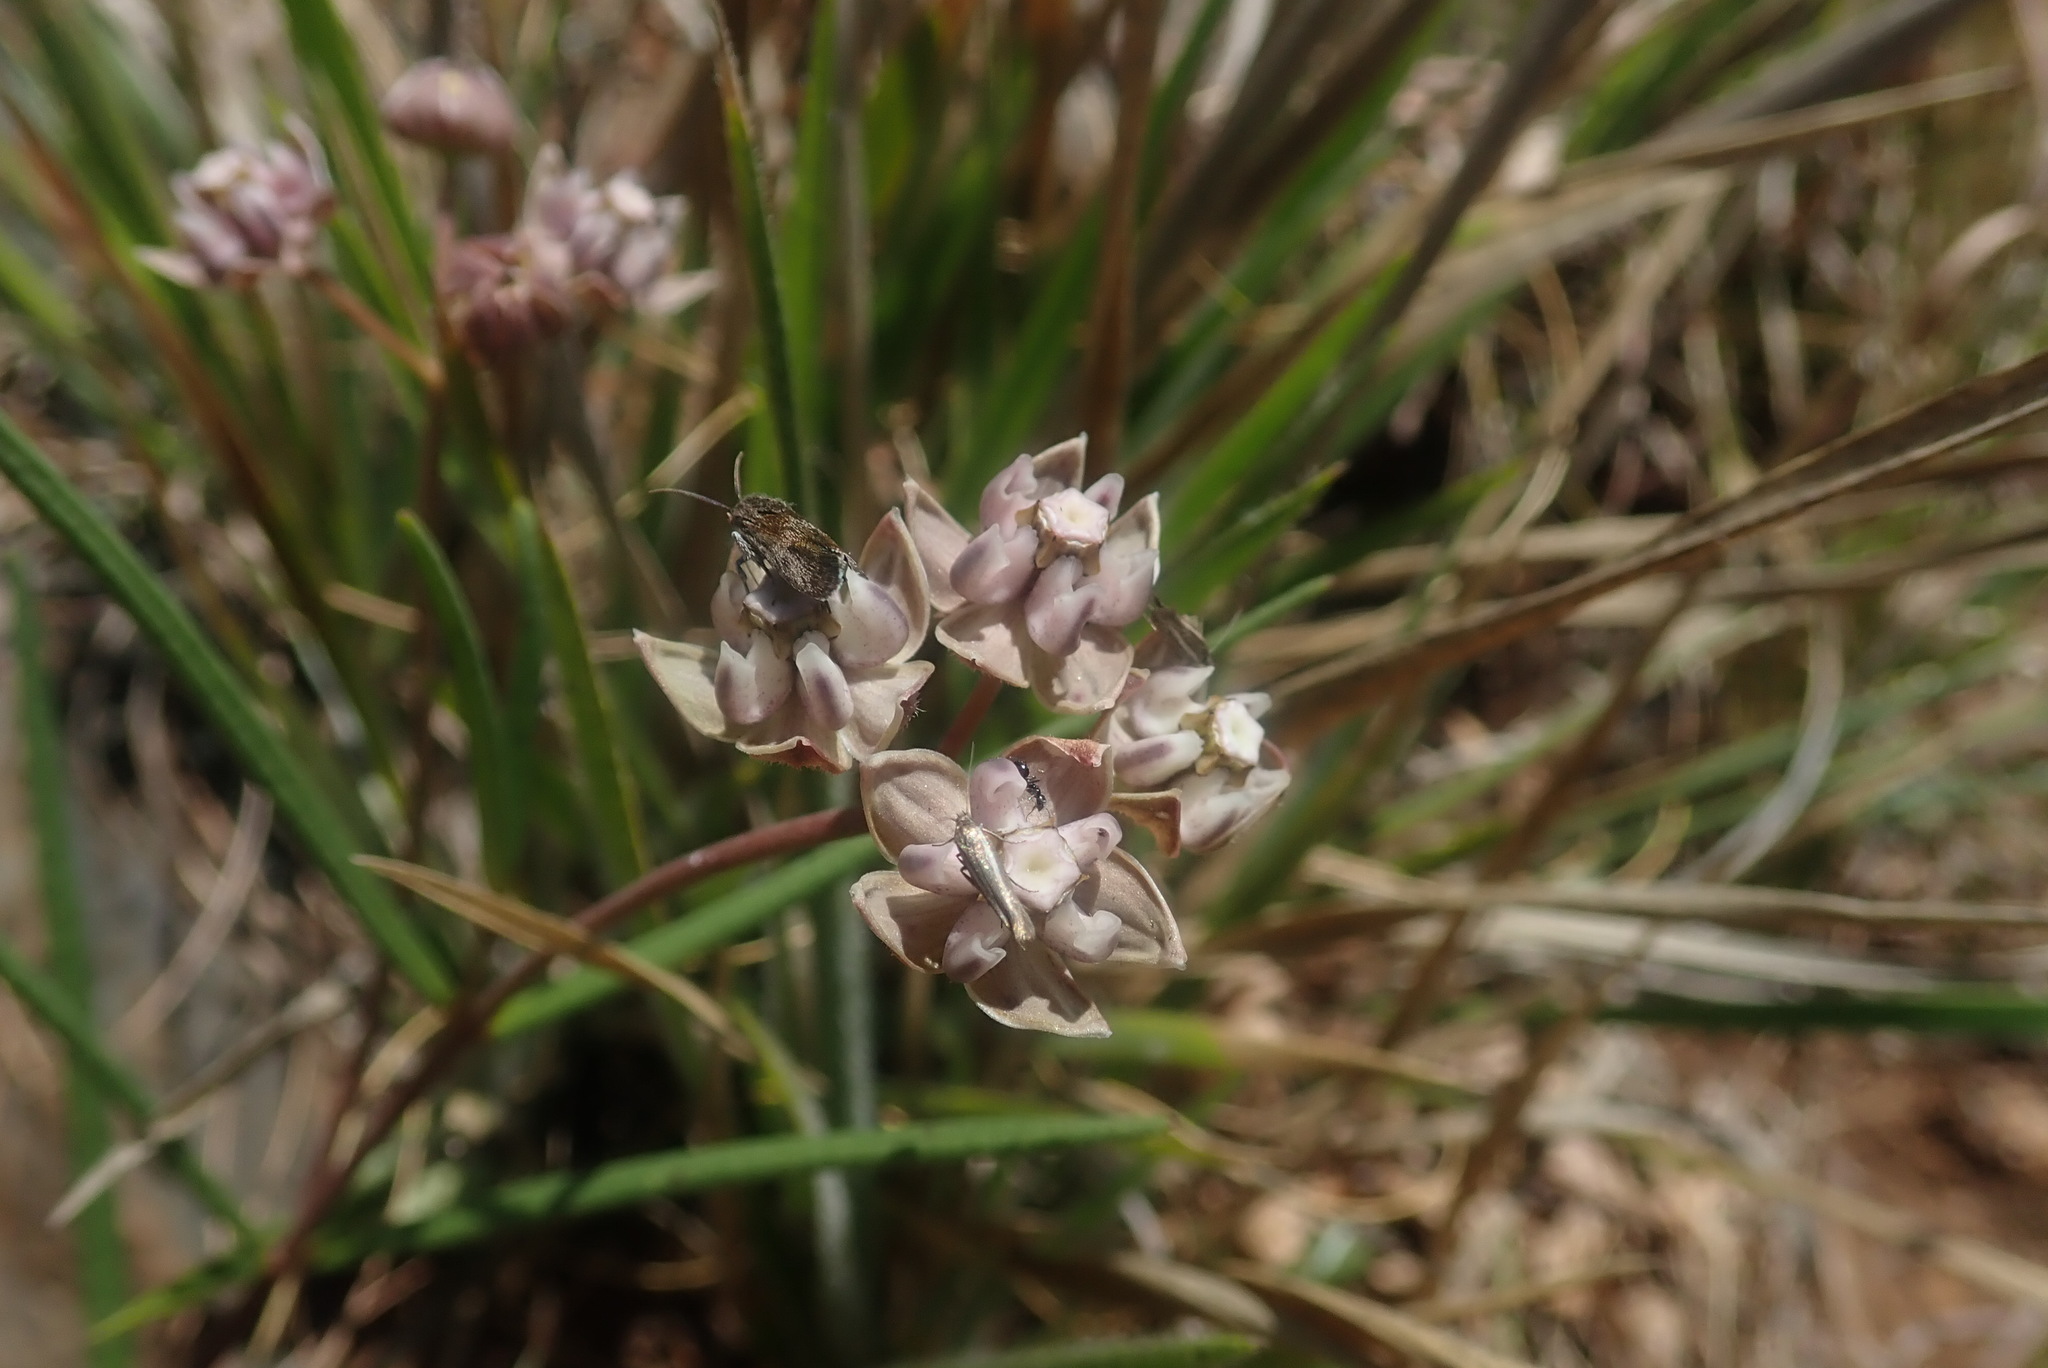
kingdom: Plantae
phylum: Tracheophyta
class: Magnoliopsida
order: Gentianales
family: Apocynaceae
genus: Asclepias
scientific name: Asclepias cucullata
